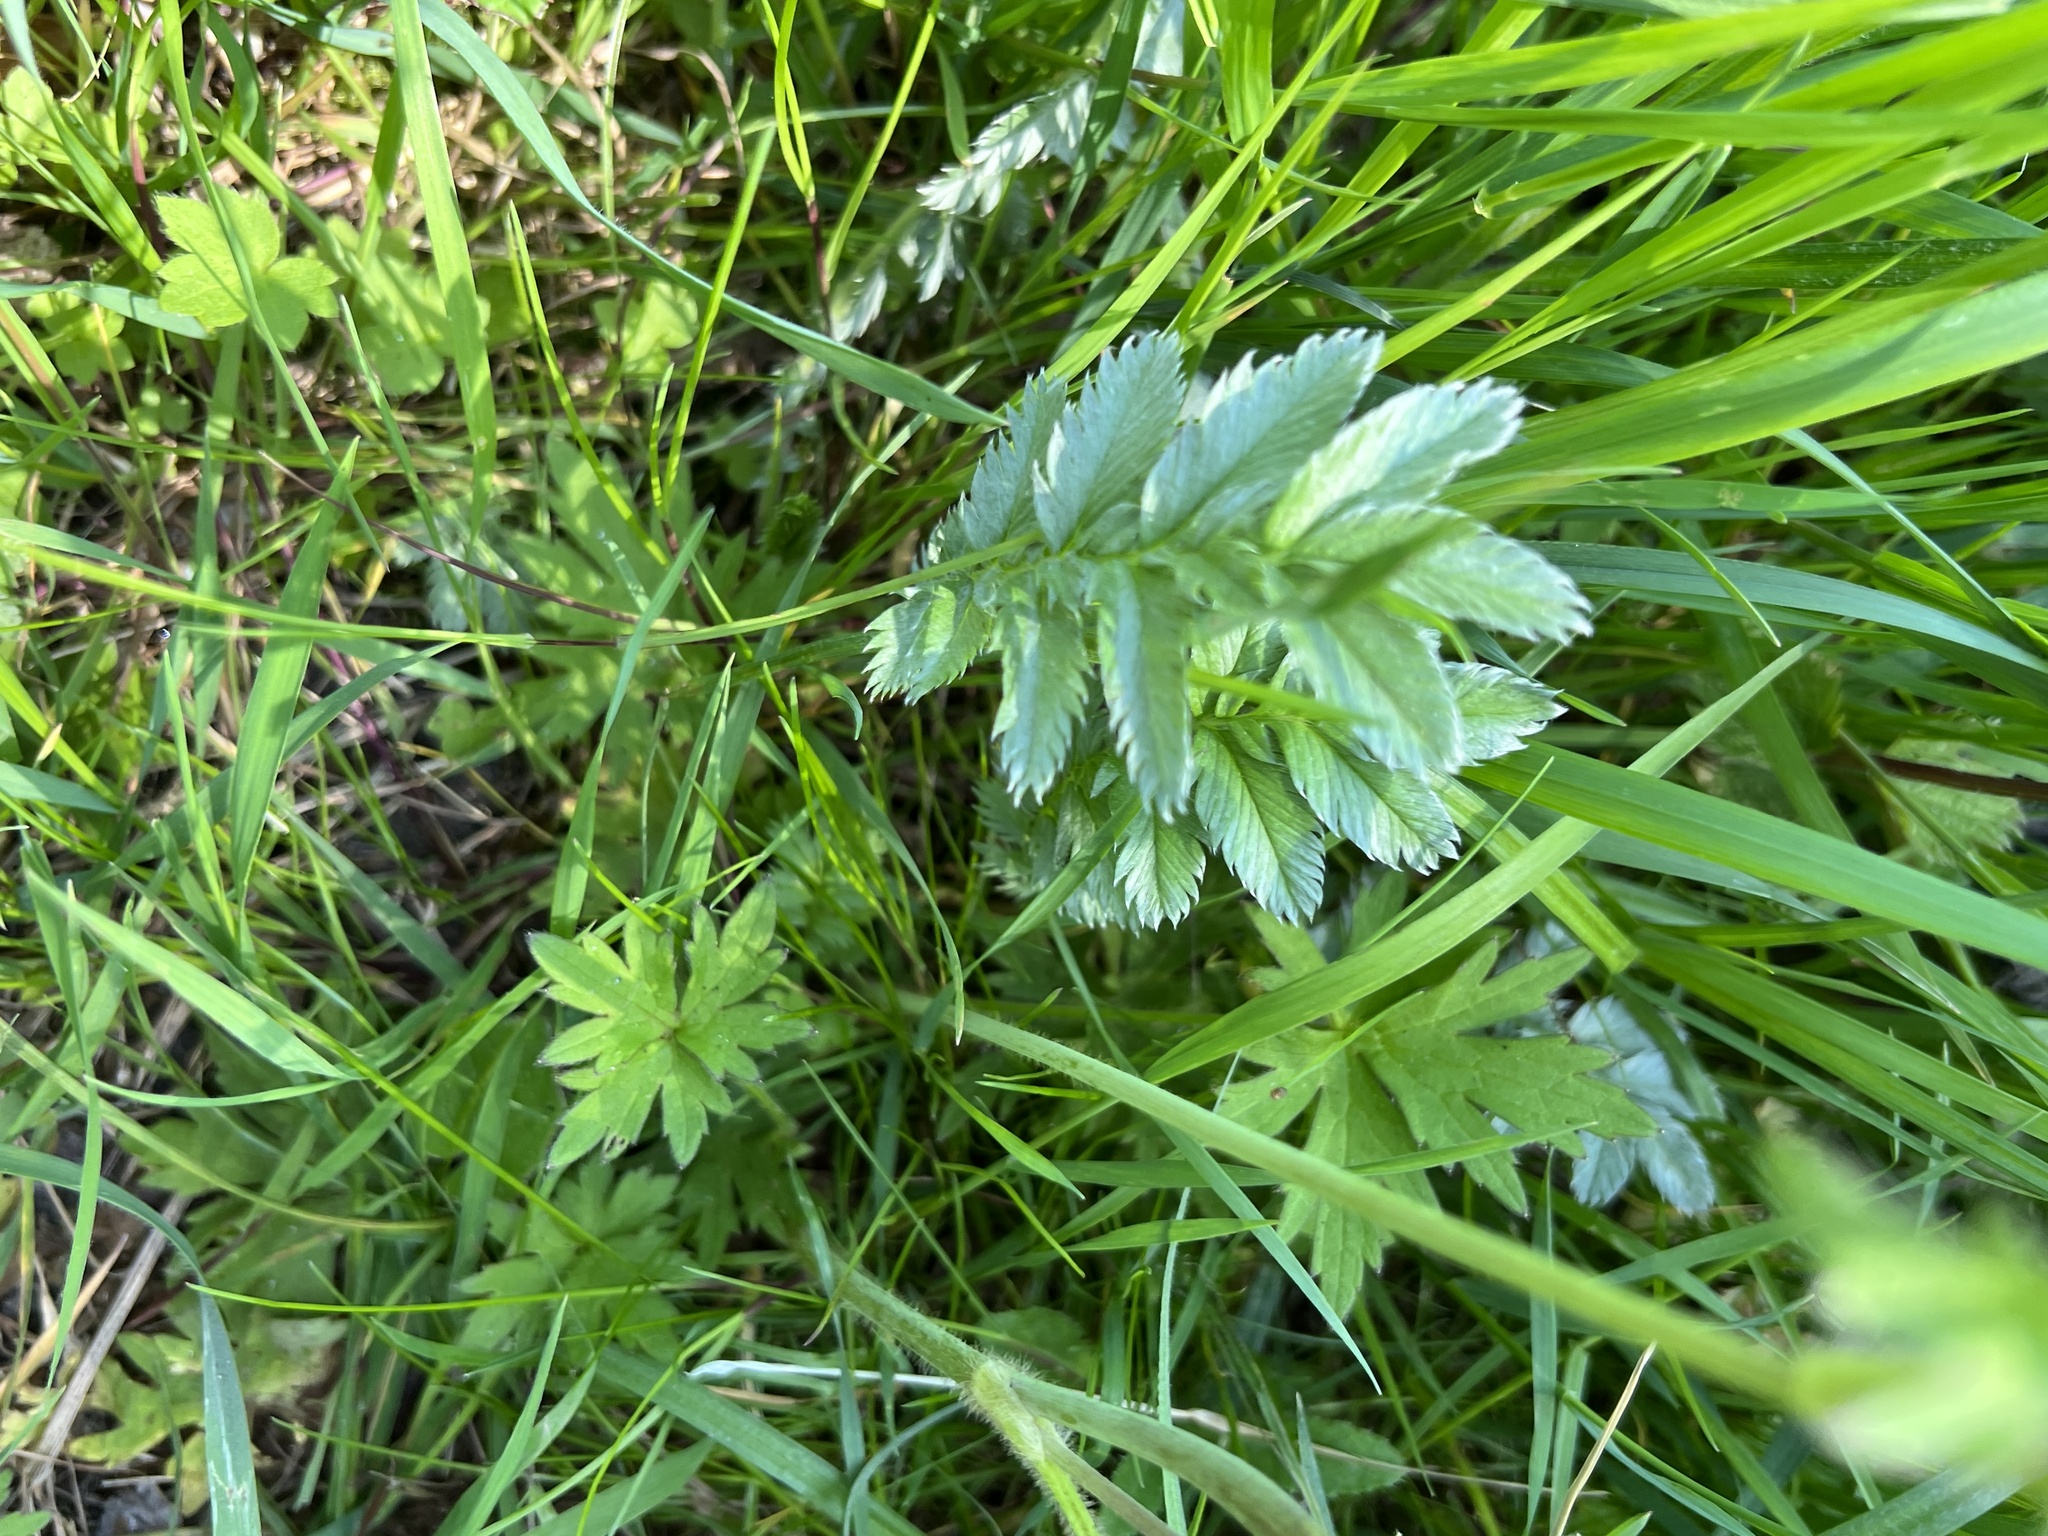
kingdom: Plantae
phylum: Tracheophyta
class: Magnoliopsida
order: Rosales
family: Rosaceae
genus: Argentina
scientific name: Argentina anserina
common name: Common silverweed
